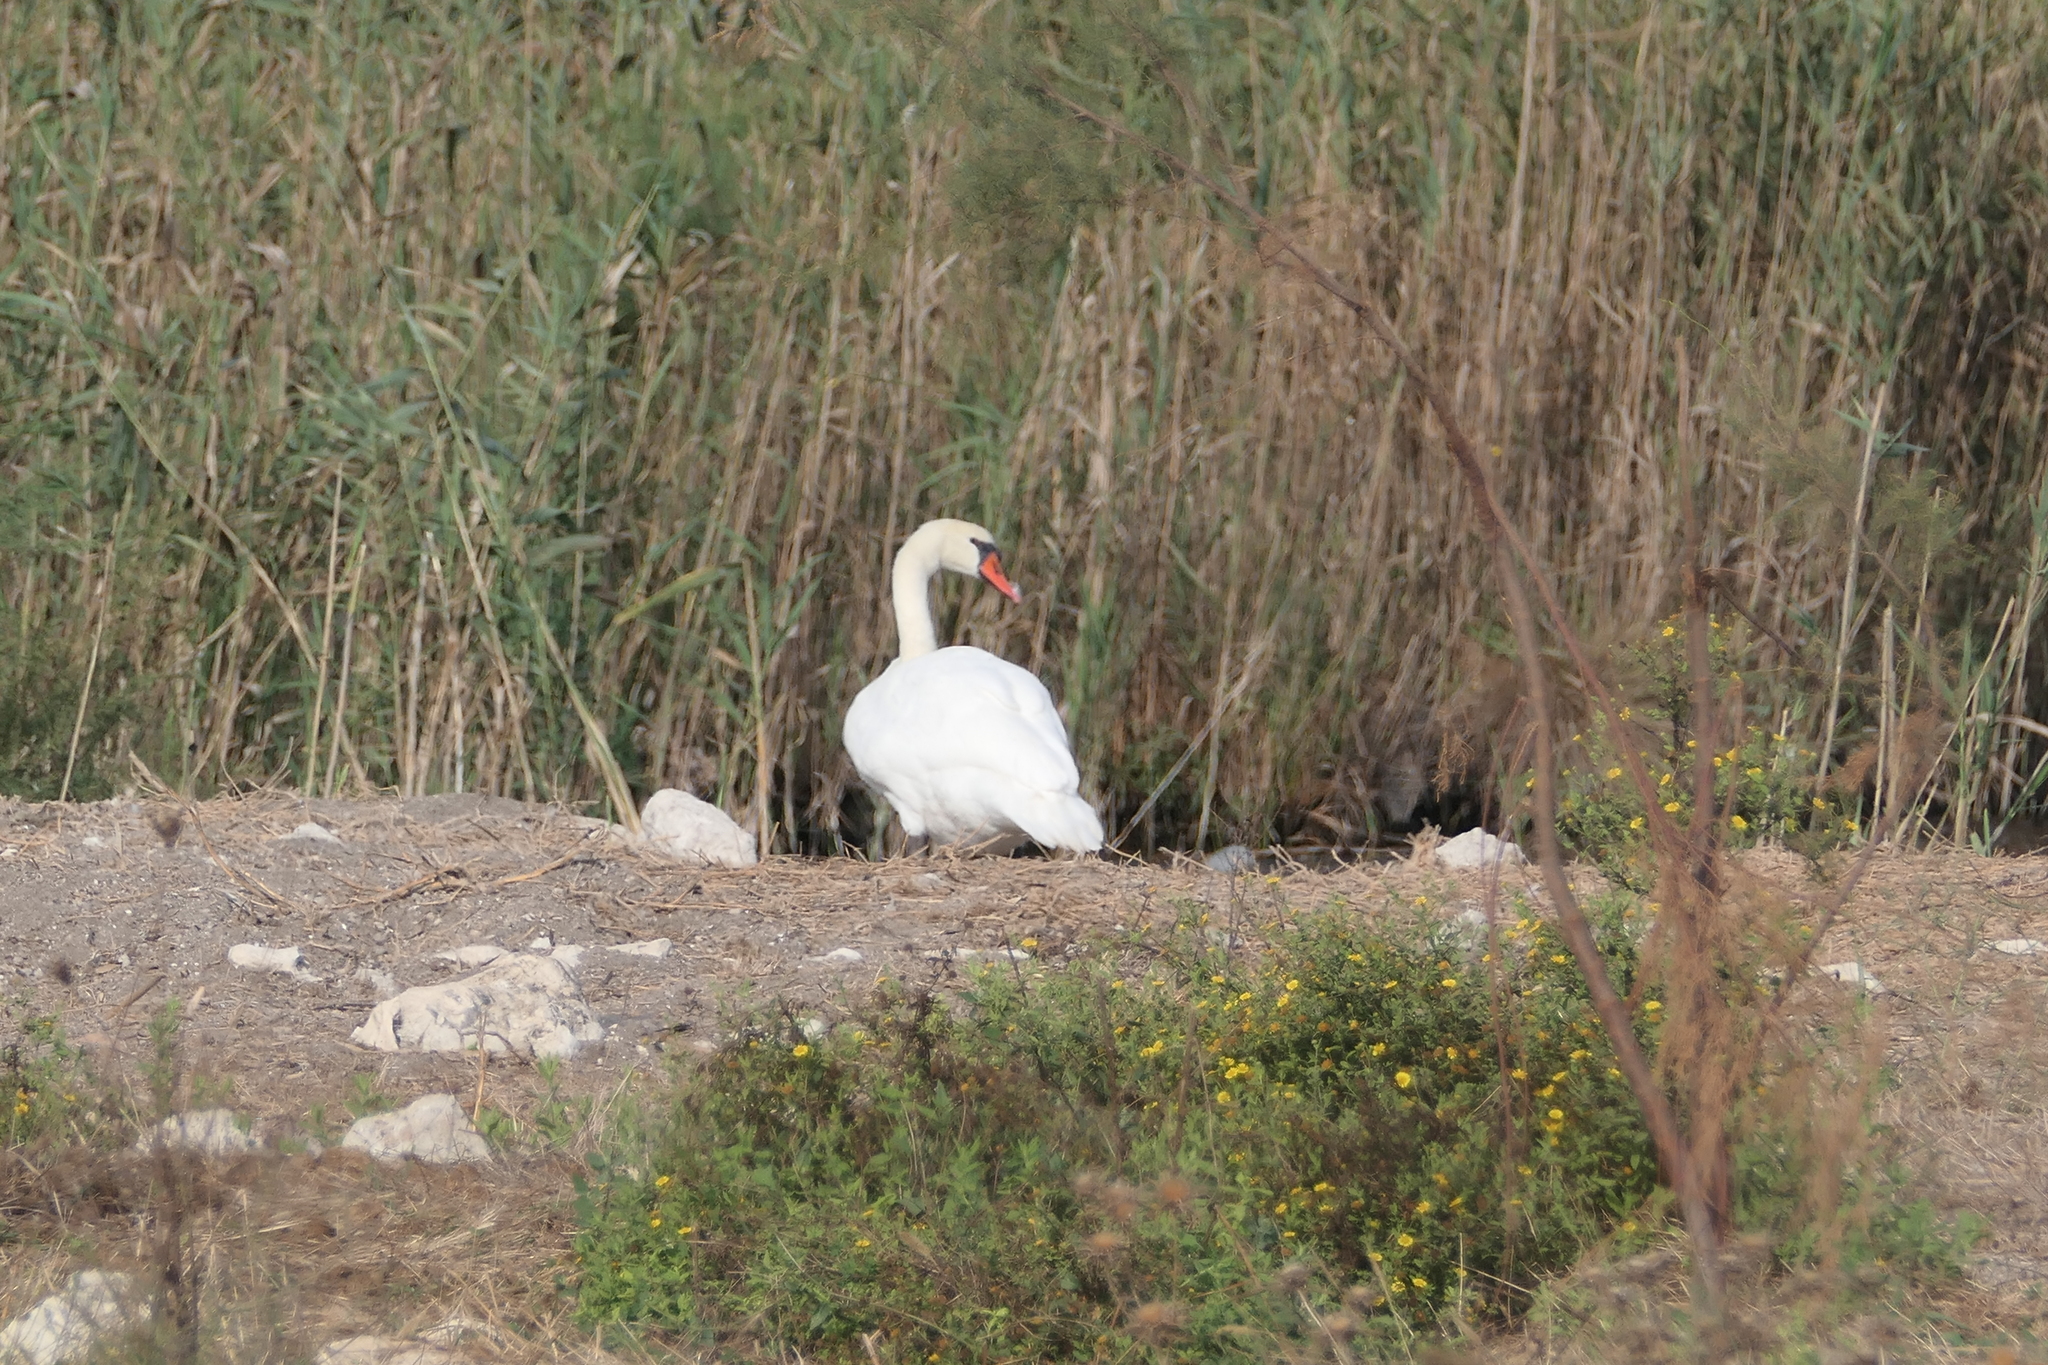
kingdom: Animalia
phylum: Chordata
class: Aves
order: Anseriformes
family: Anatidae
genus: Cygnus
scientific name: Cygnus olor
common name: Mute swan
